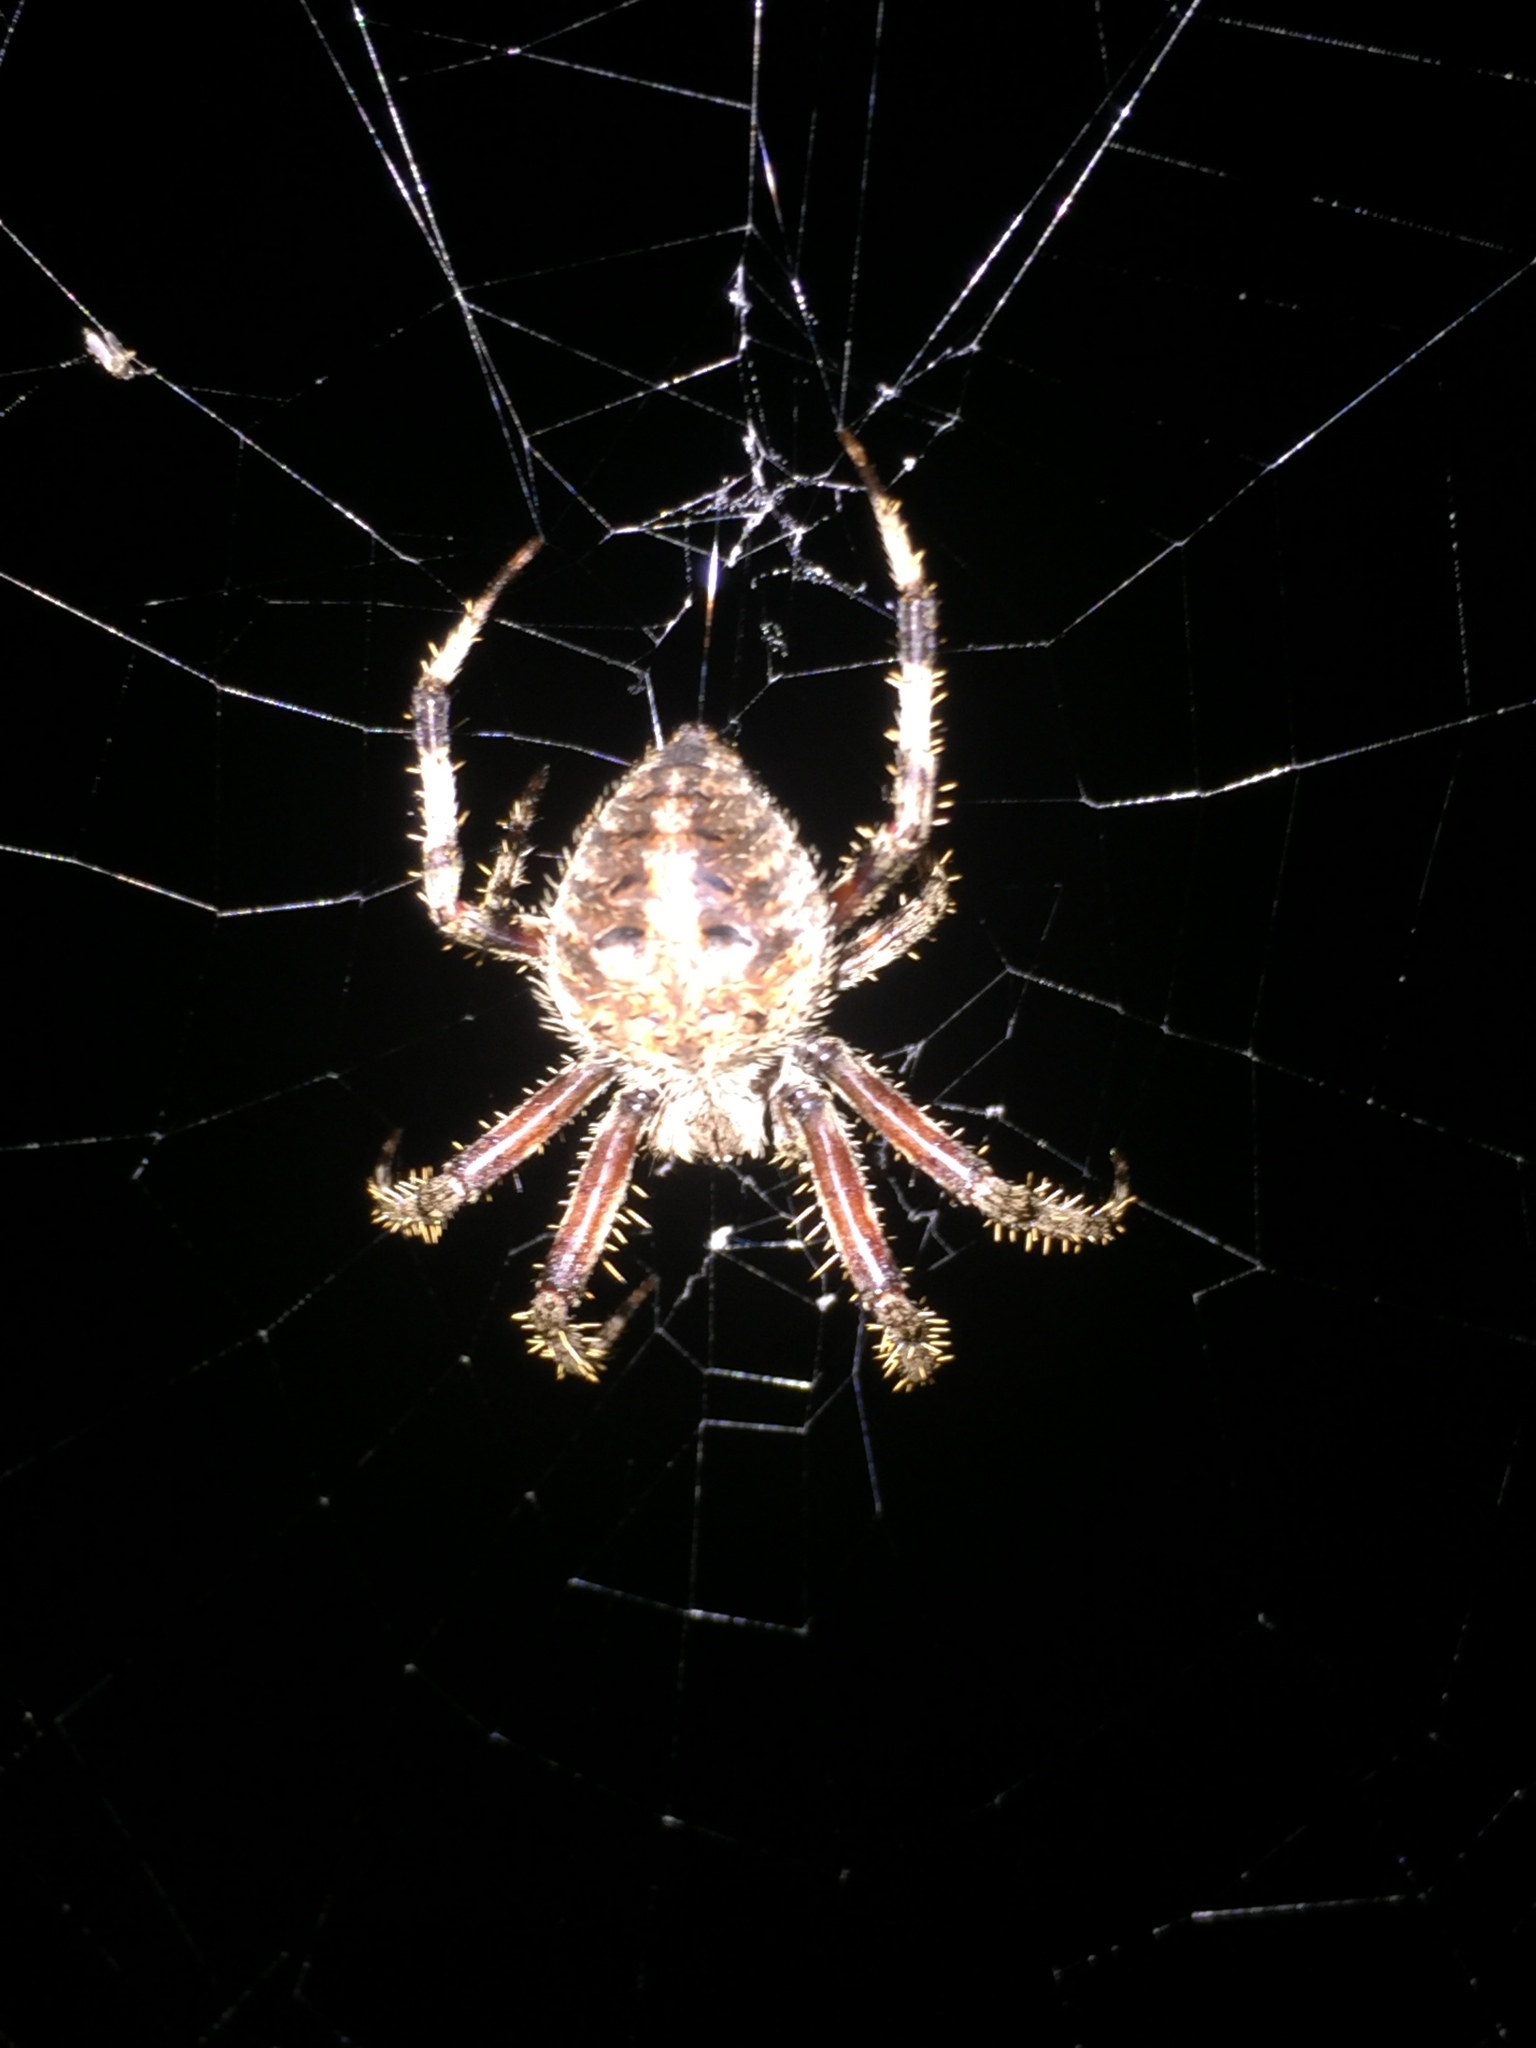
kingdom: Animalia
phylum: Arthropoda
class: Arachnida
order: Araneae
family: Araneidae
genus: Neoscona
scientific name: Neoscona crucifera
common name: Spotted orbweaver
